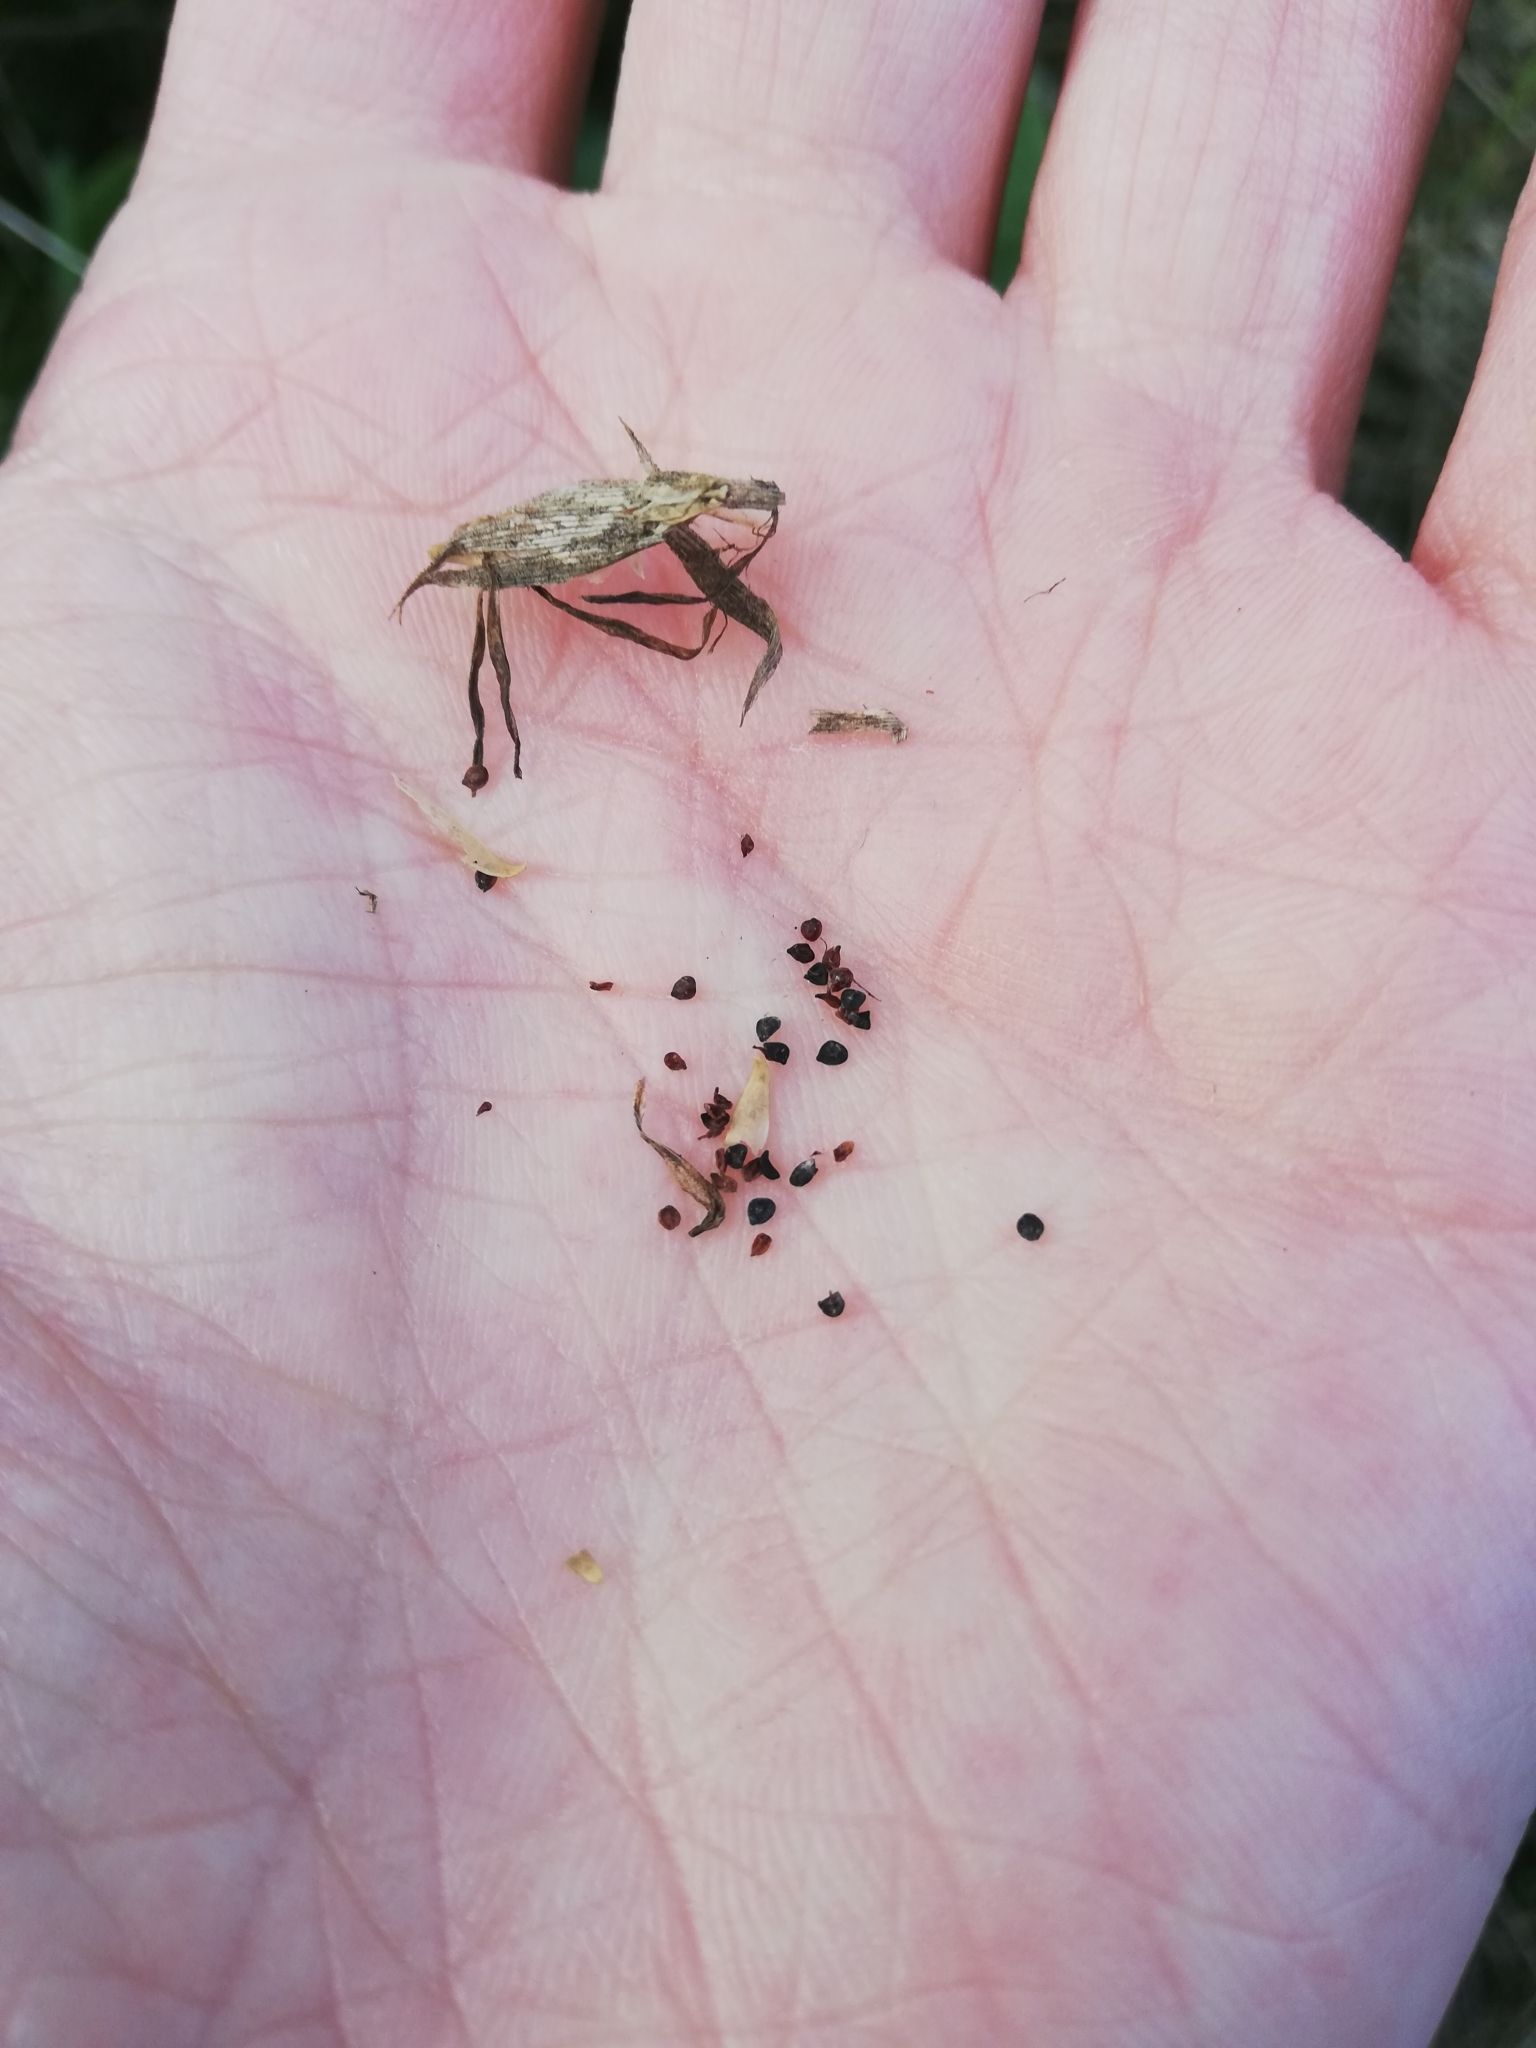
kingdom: Plantae
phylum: Tracheophyta
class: Magnoliopsida
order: Caryophyllales
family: Caryophyllaceae
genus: Dianthus
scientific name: Dianthus deltoides
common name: Maiden pink
